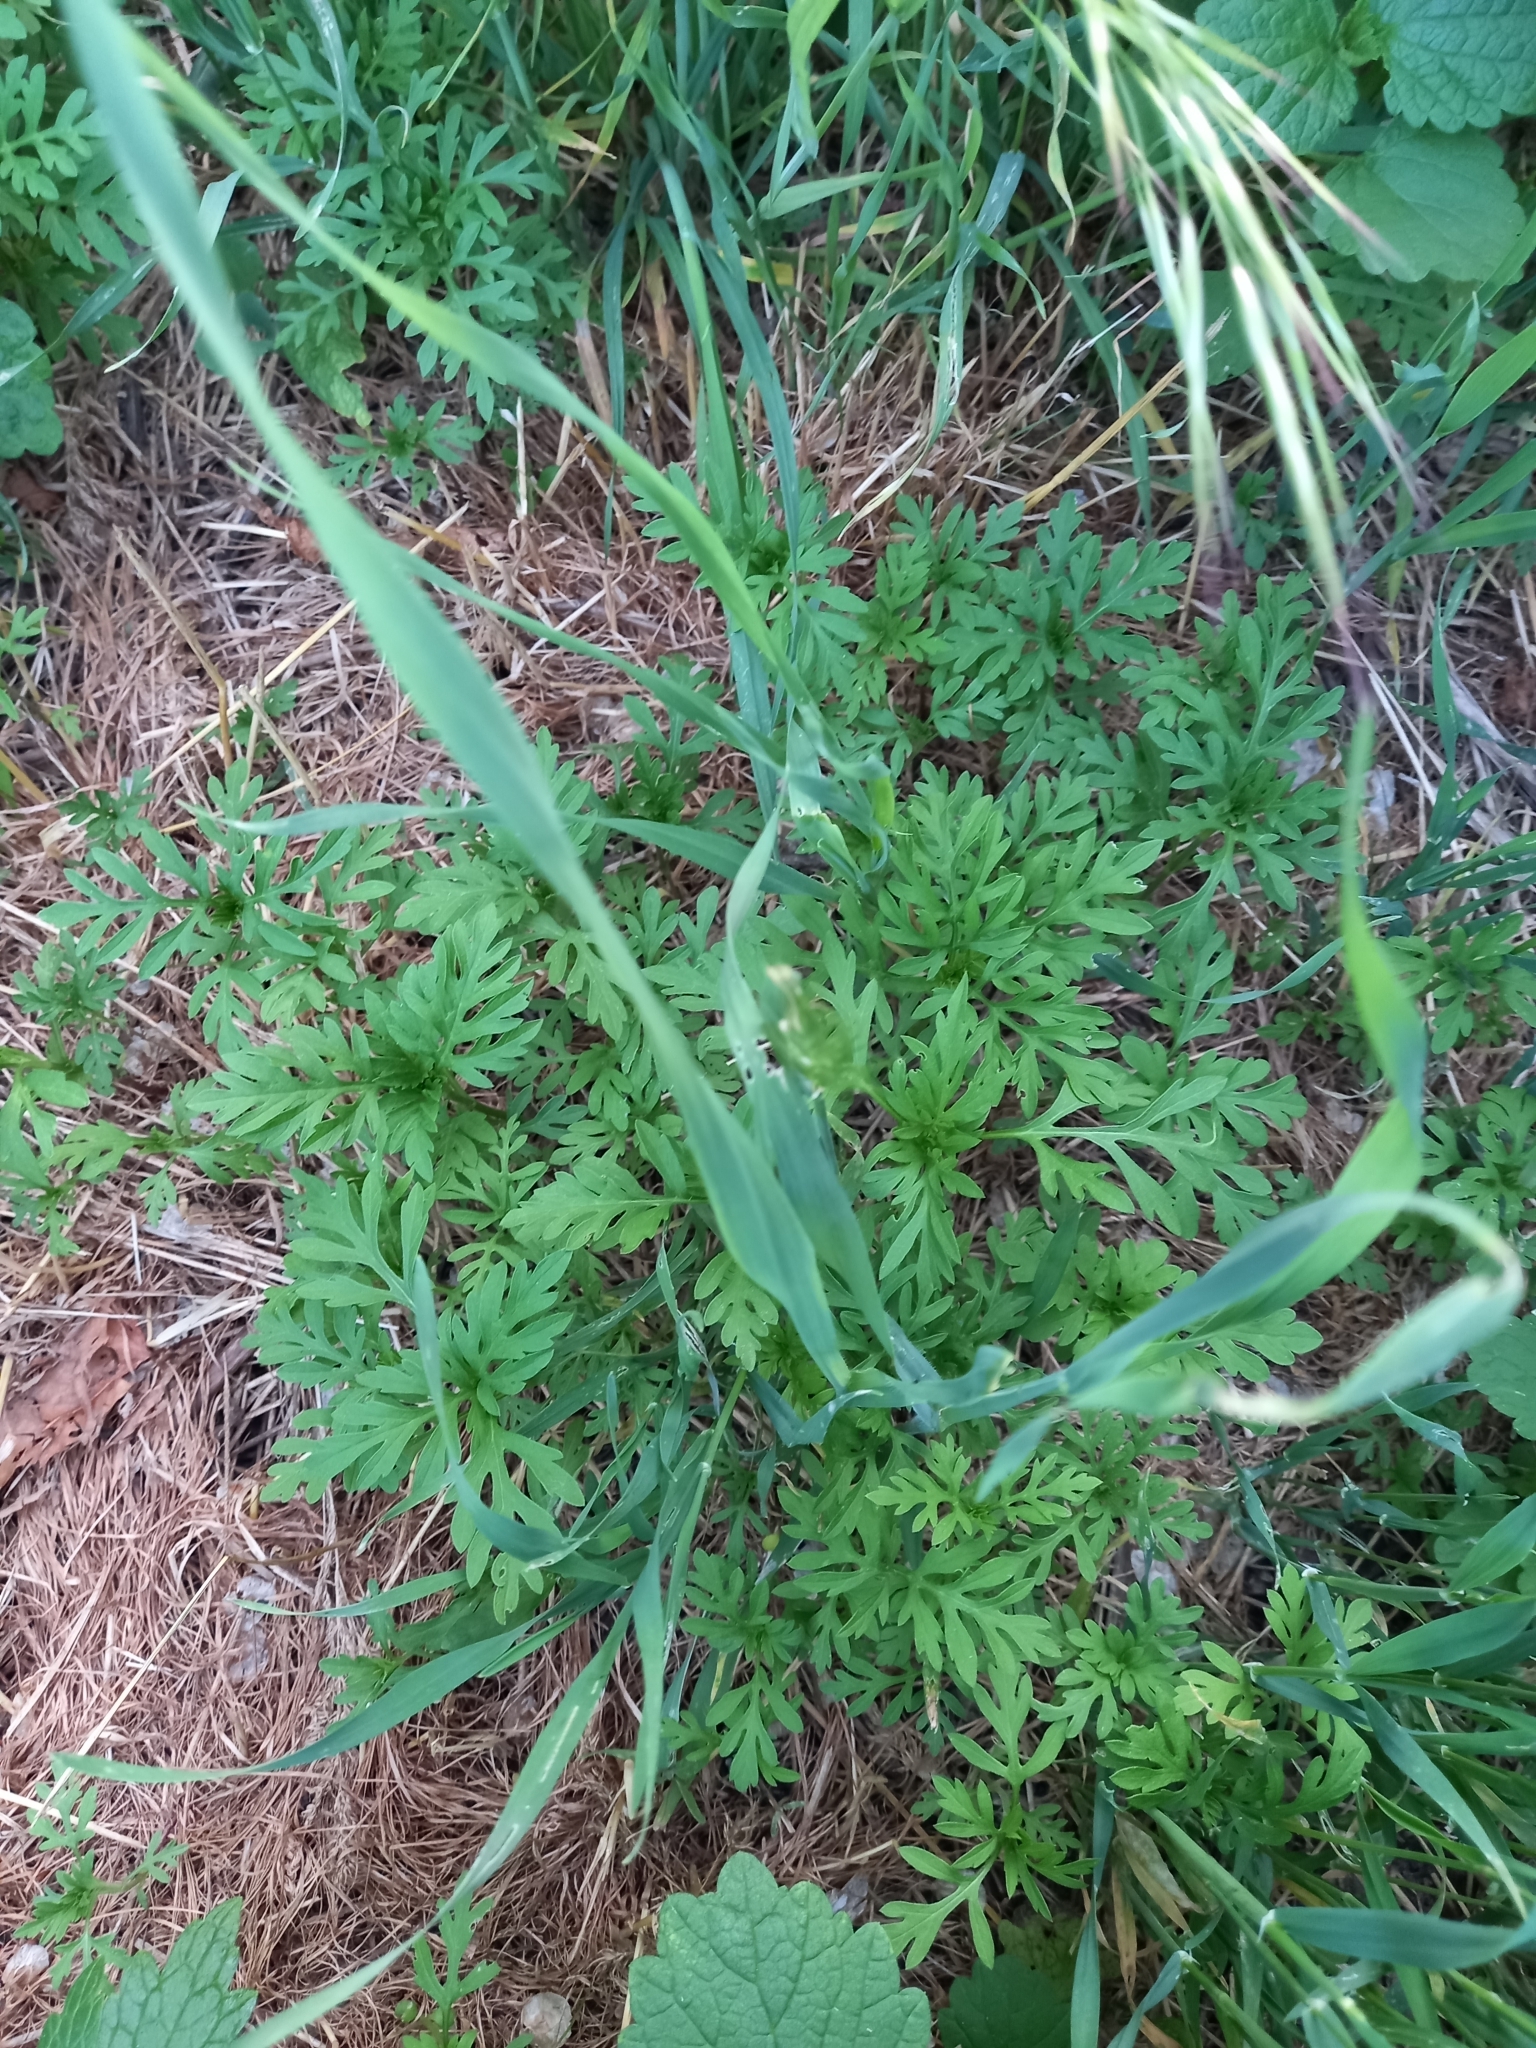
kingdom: Plantae
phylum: Tracheophyta
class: Magnoliopsida
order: Asterales
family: Asteraceae
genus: Ambrosia
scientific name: Ambrosia artemisiifolia
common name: Annual ragweed
